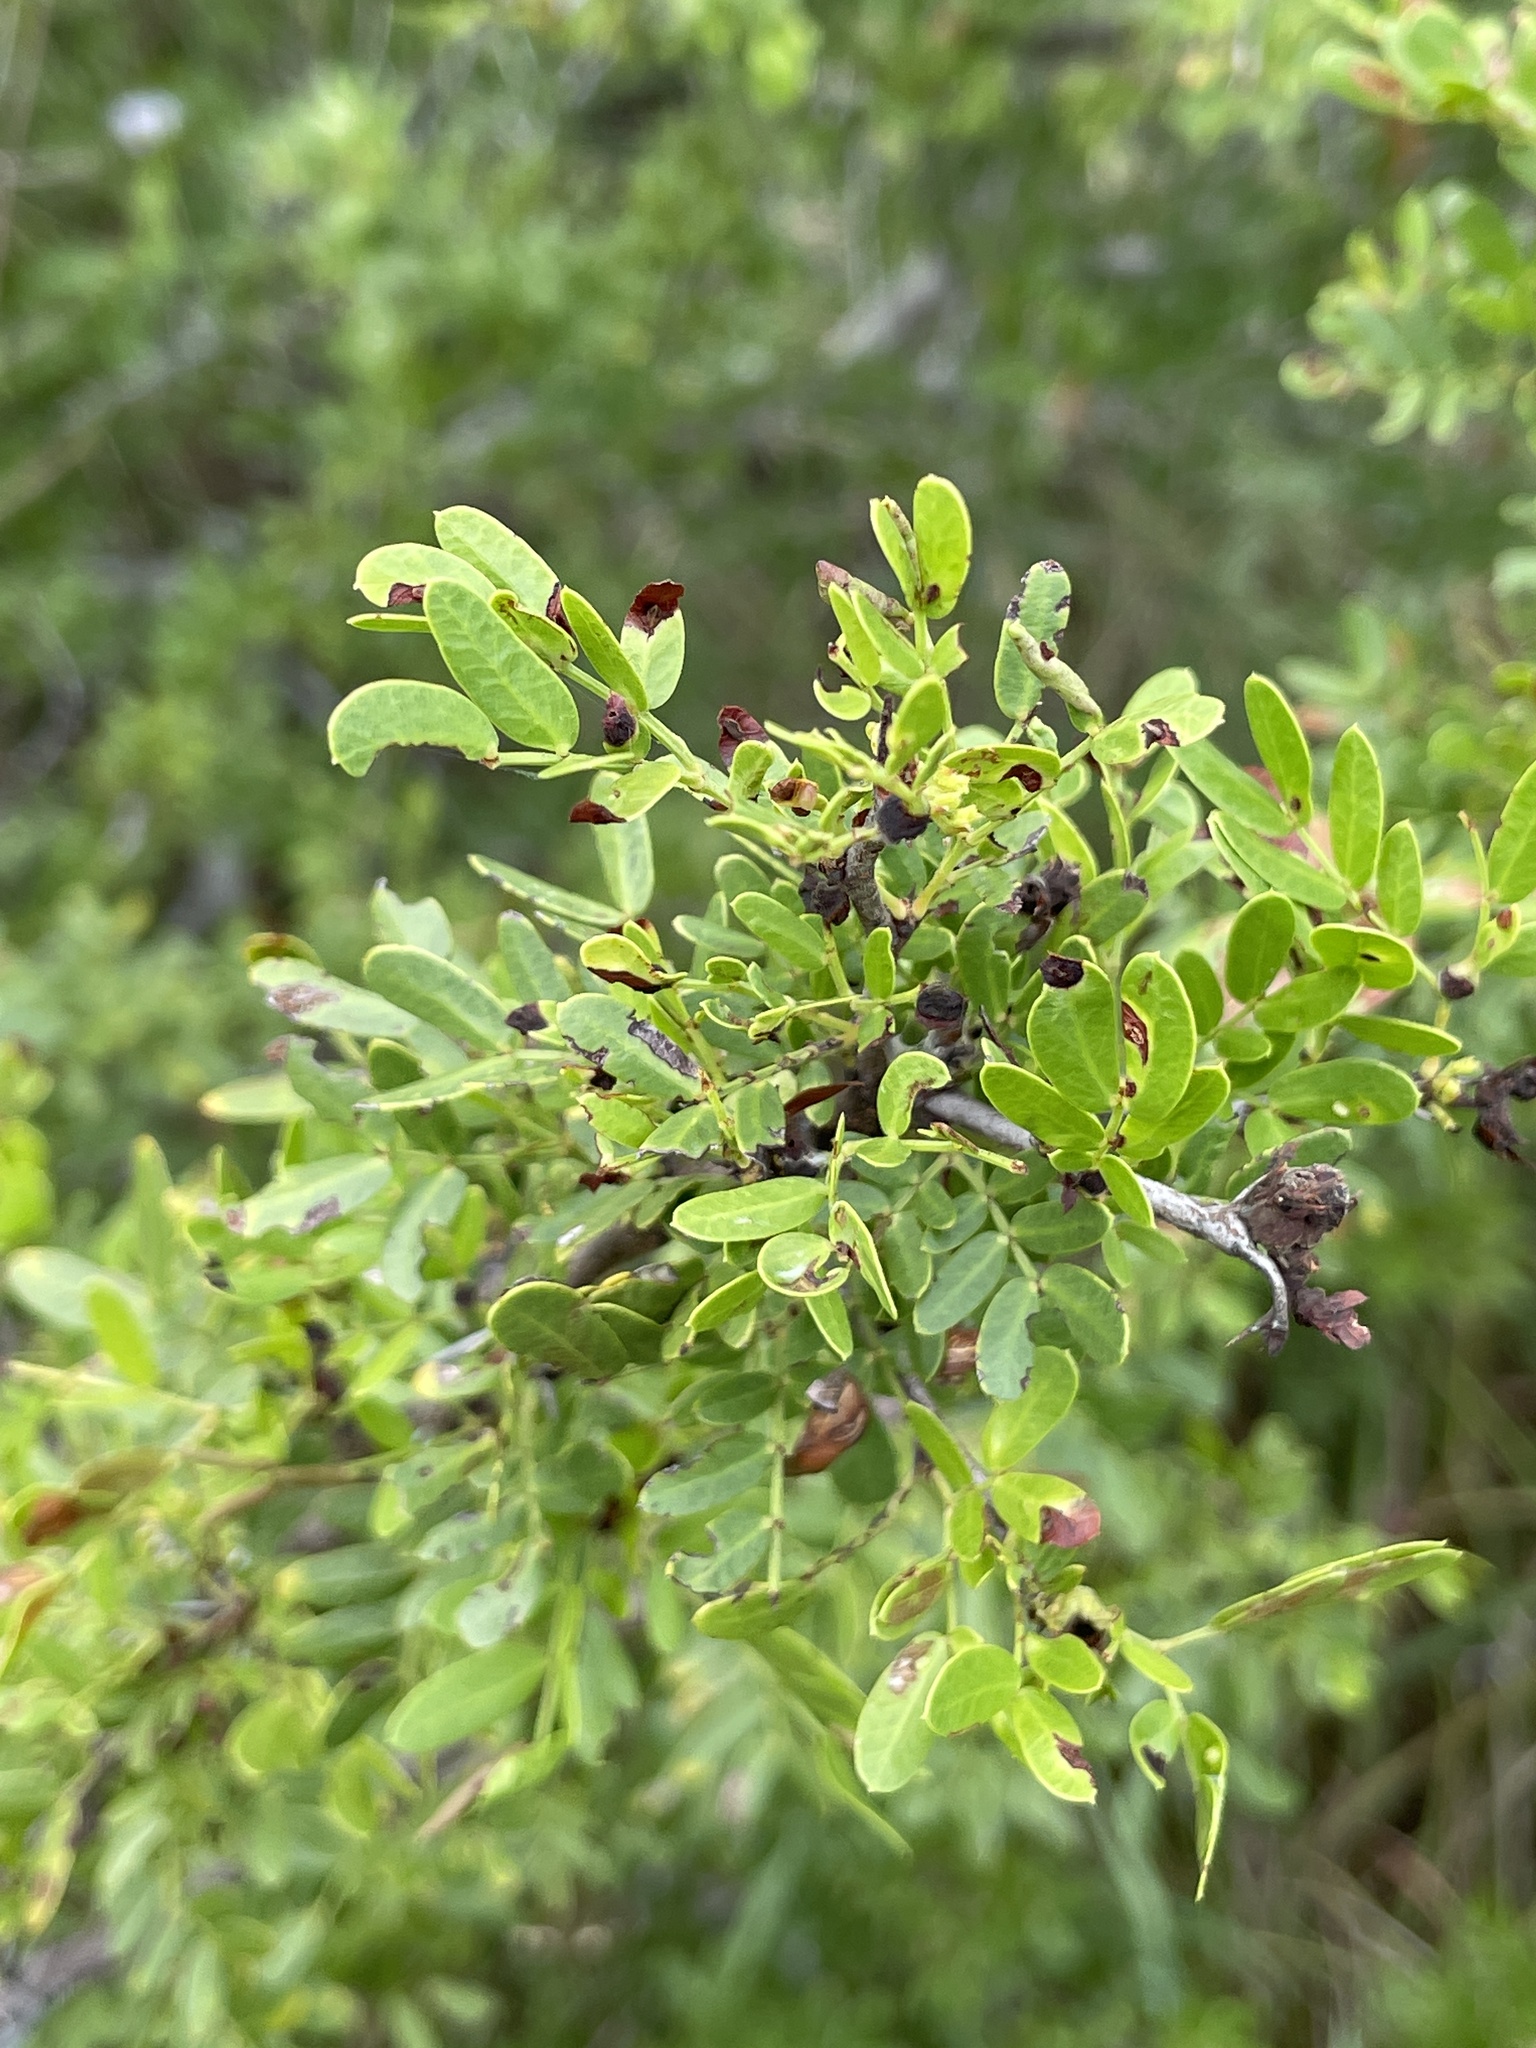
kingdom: Plantae
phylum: Tracheophyta
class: Magnoliopsida
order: Fabales
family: Fabaceae
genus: Vachellia
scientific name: Vachellia rigidula
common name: Blackbrush
